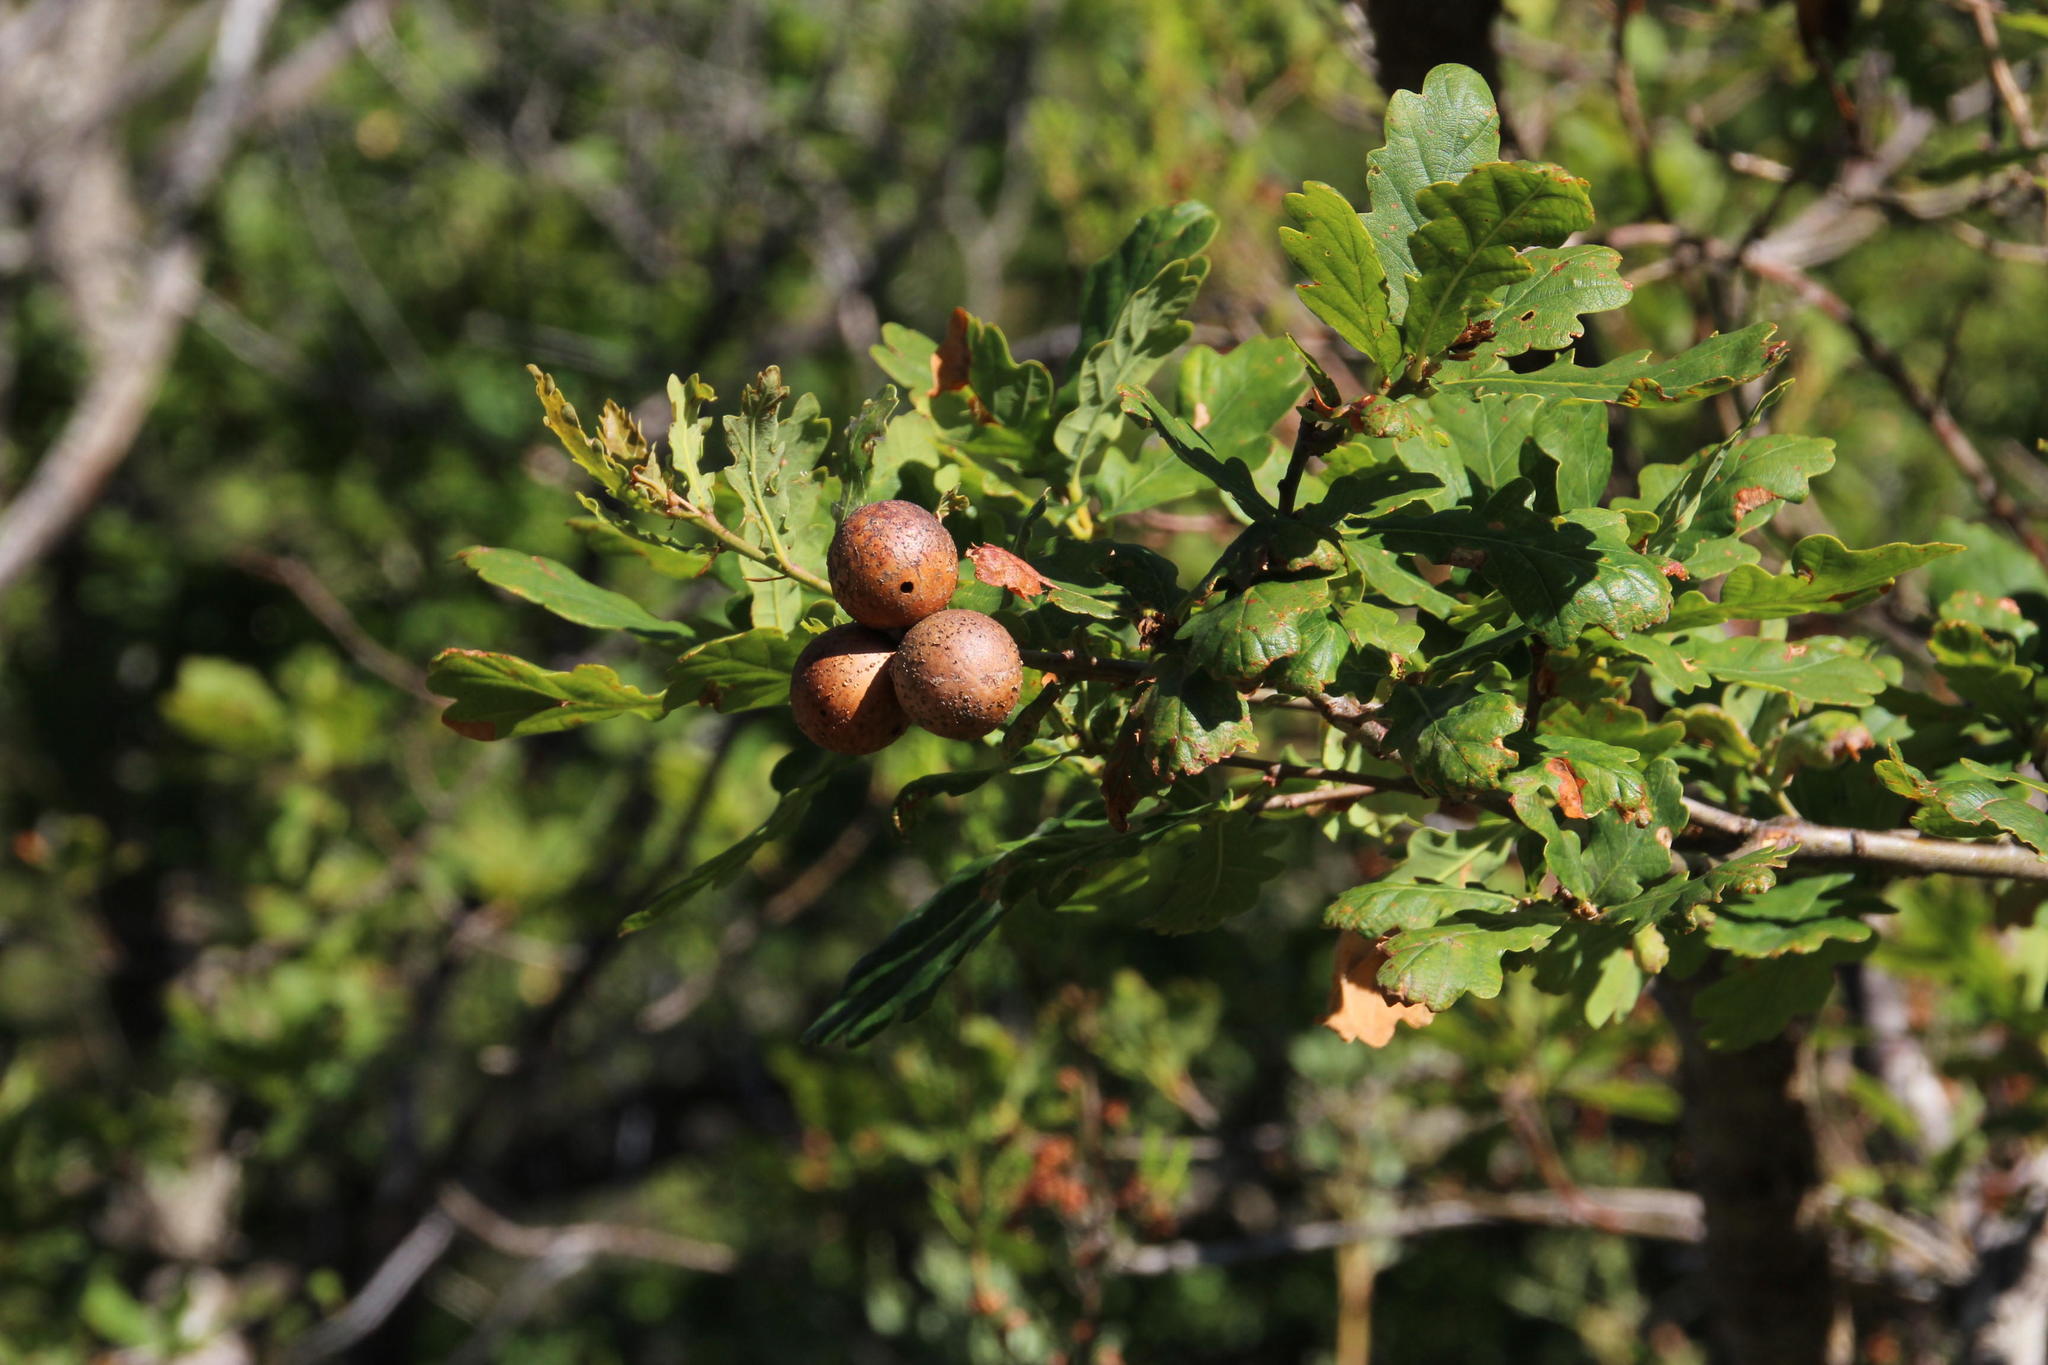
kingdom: Animalia
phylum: Arthropoda
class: Insecta
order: Hymenoptera
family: Cynipidae
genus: Andricus
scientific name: Andricus kollari
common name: Marble gall
